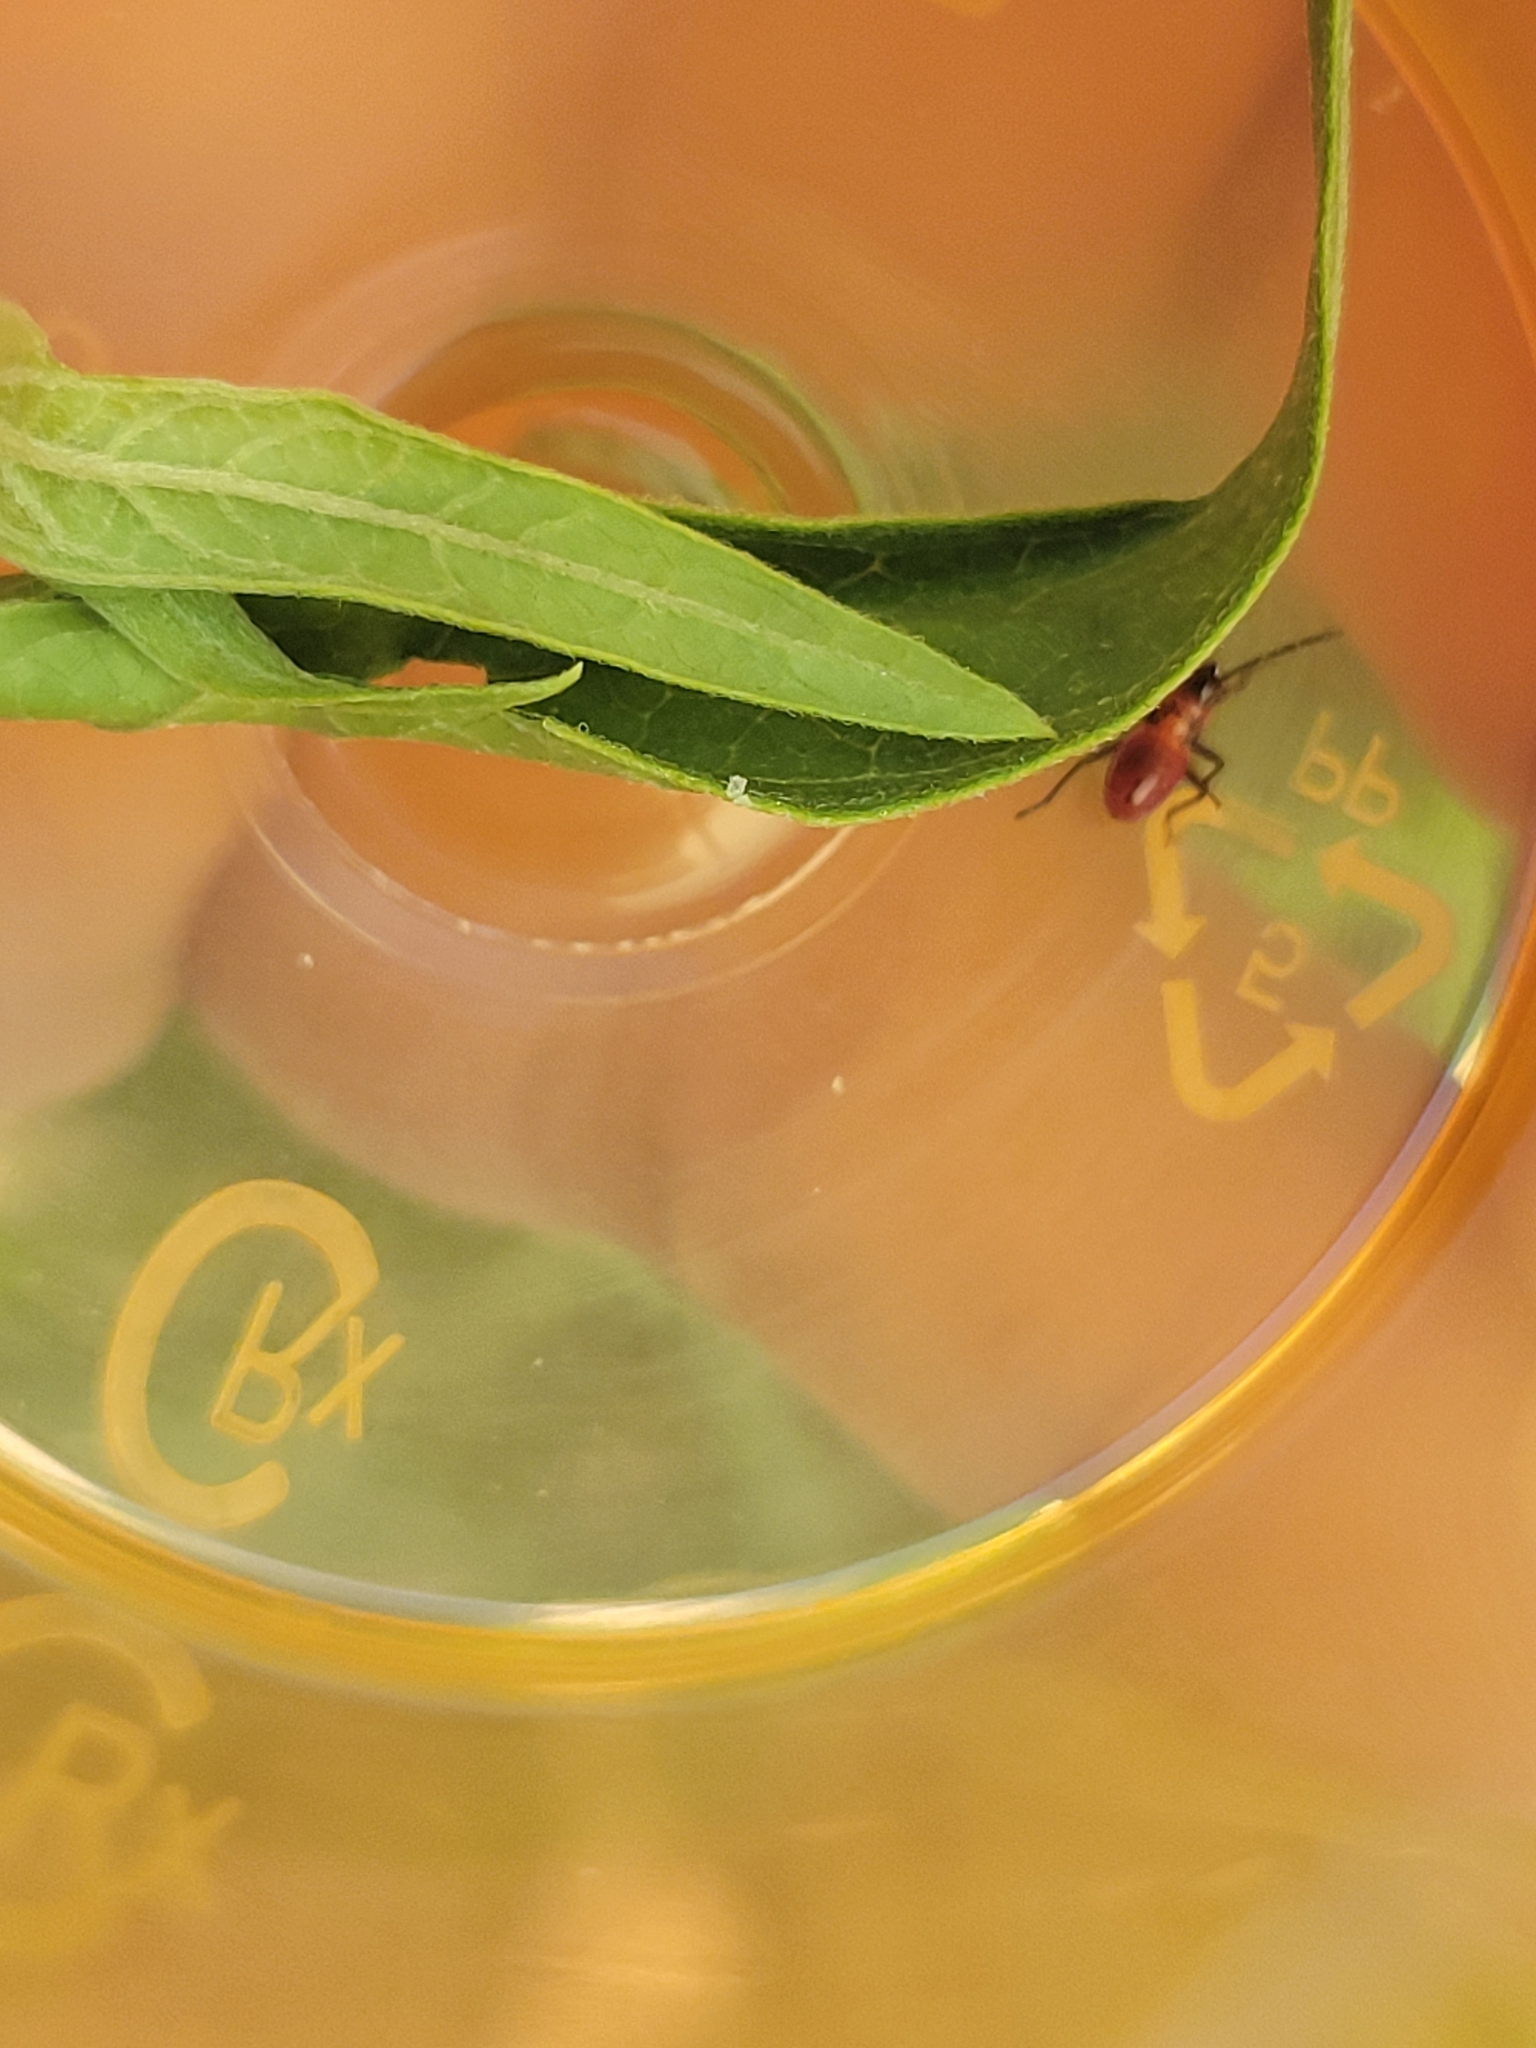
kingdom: Animalia
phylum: Arthropoda
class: Insecta
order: Hemiptera
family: Lygaeidae
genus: Oncopeltus
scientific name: Oncopeltus fasciatus
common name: Large milkweed bug
